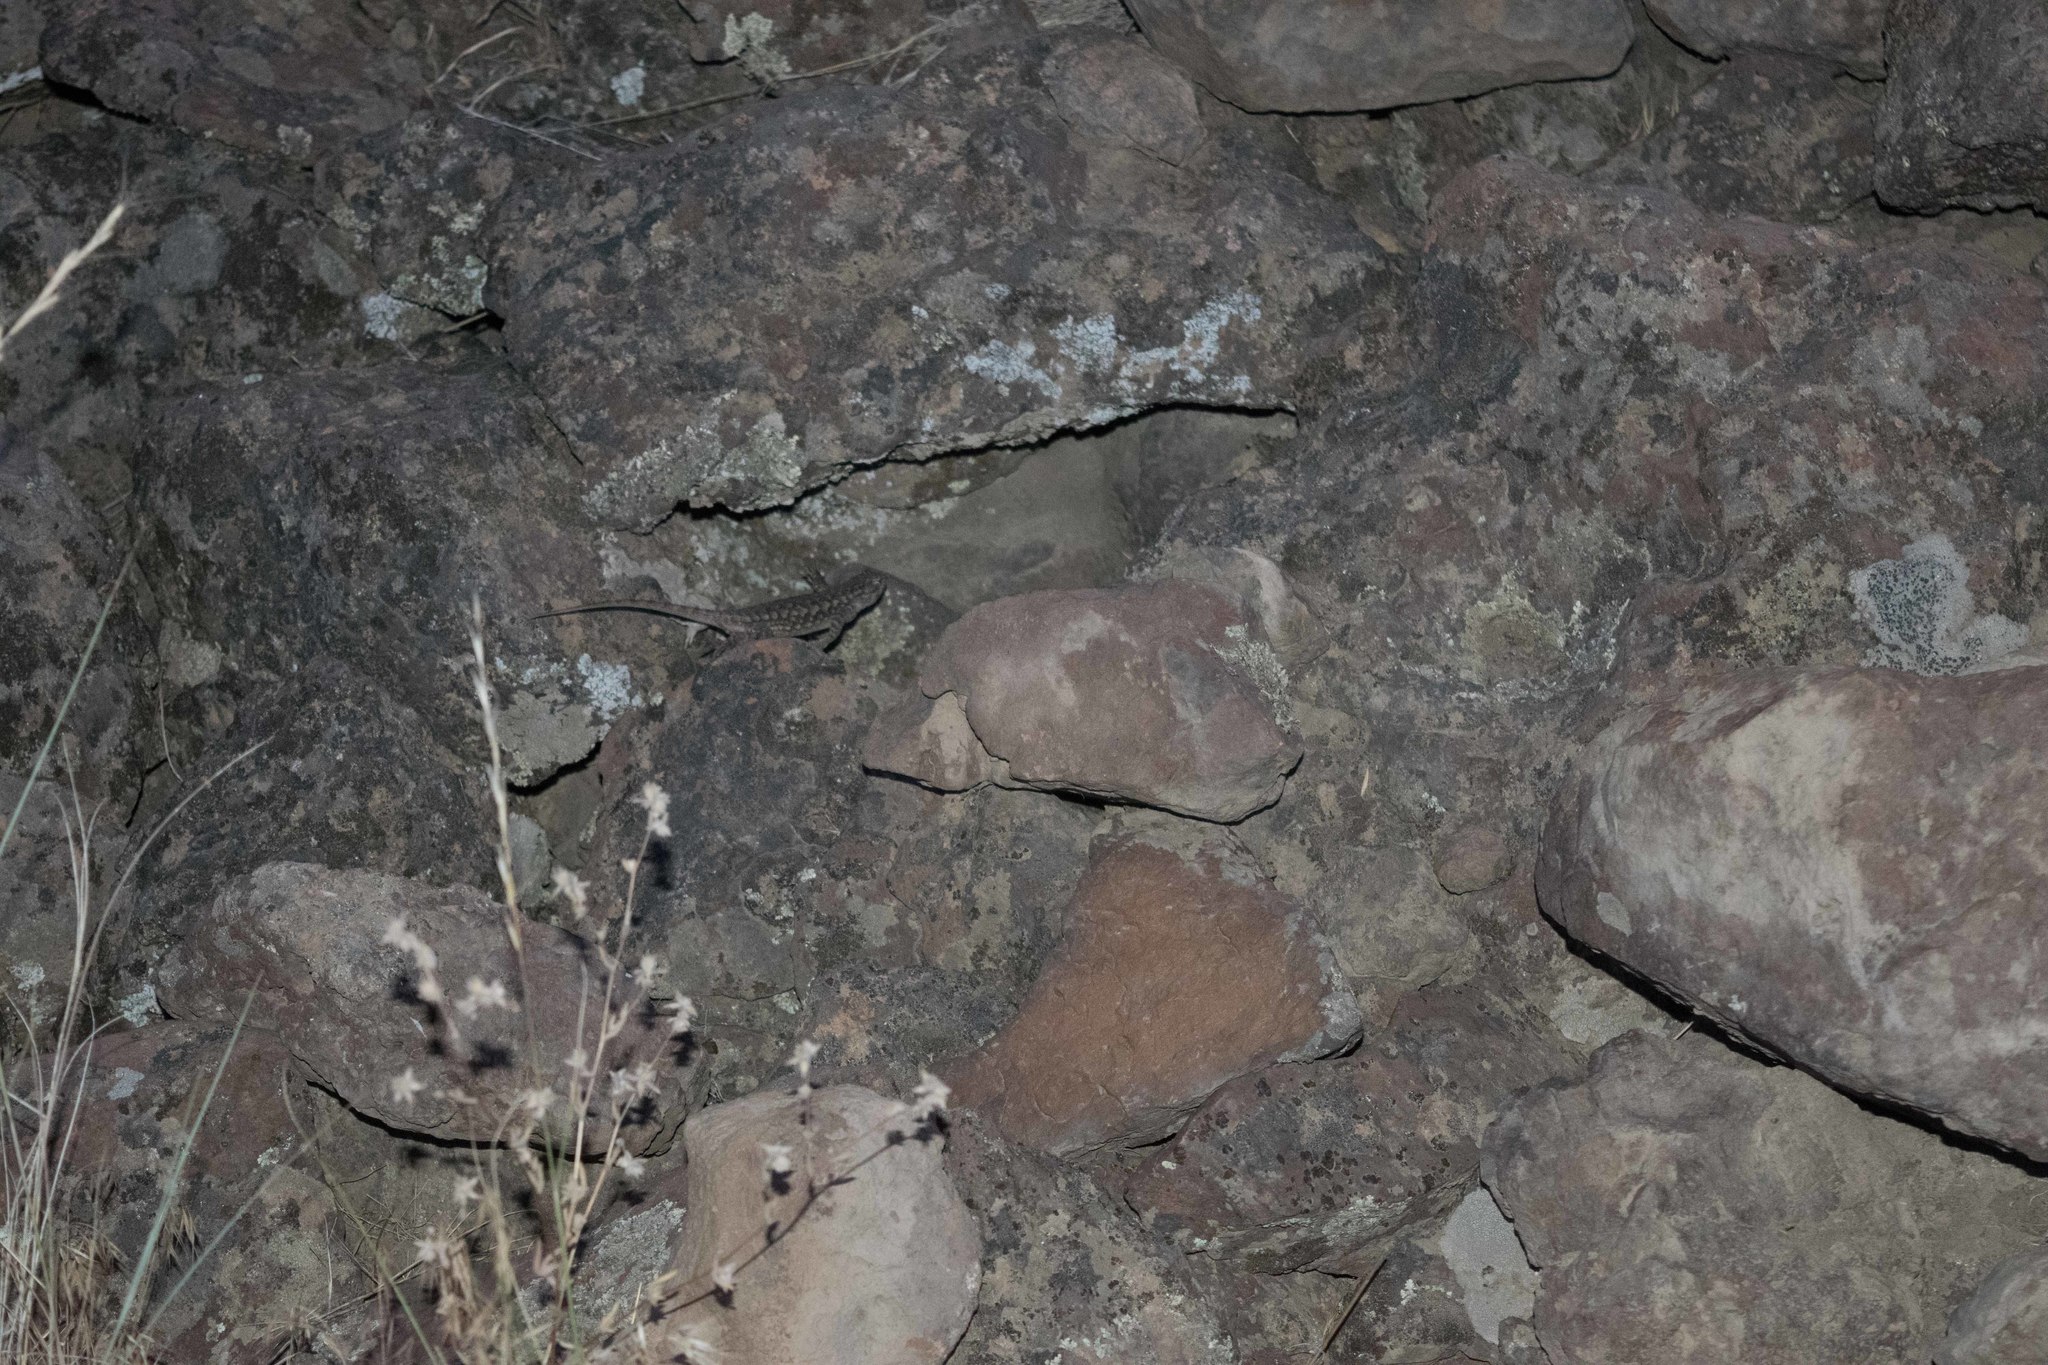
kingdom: Animalia
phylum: Chordata
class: Squamata
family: Phrynosomatidae
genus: Sceloporus
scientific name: Sceloporus occidentalis
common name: Western fence lizard
